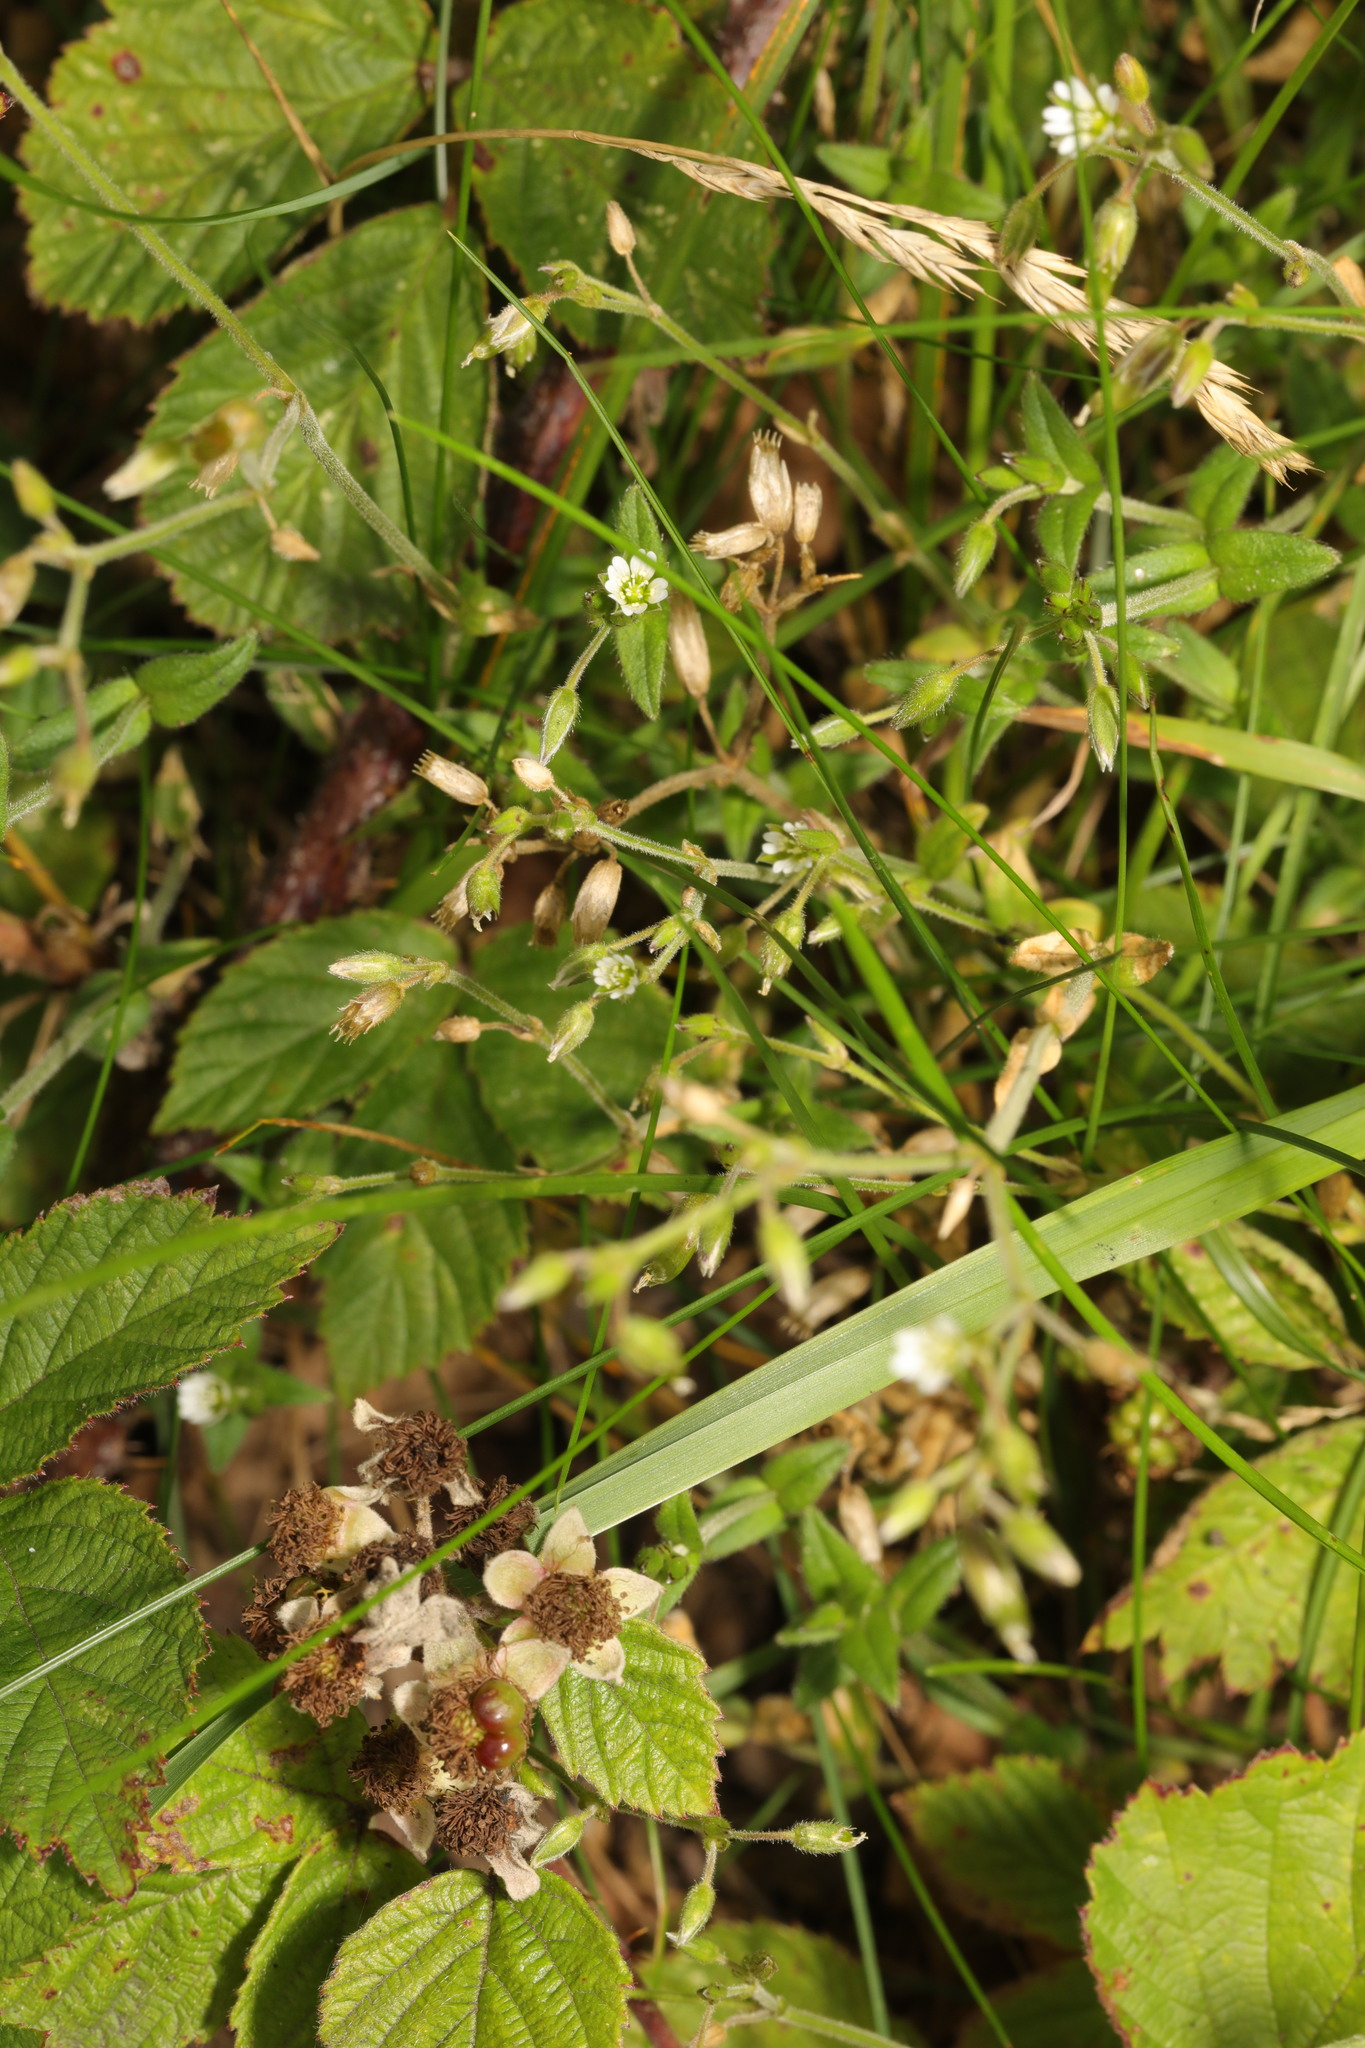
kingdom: Plantae
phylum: Tracheophyta
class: Magnoliopsida
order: Caryophyllales
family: Caryophyllaceae
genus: Cerastium
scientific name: Cerastium fontanum
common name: Common mouse-ear
